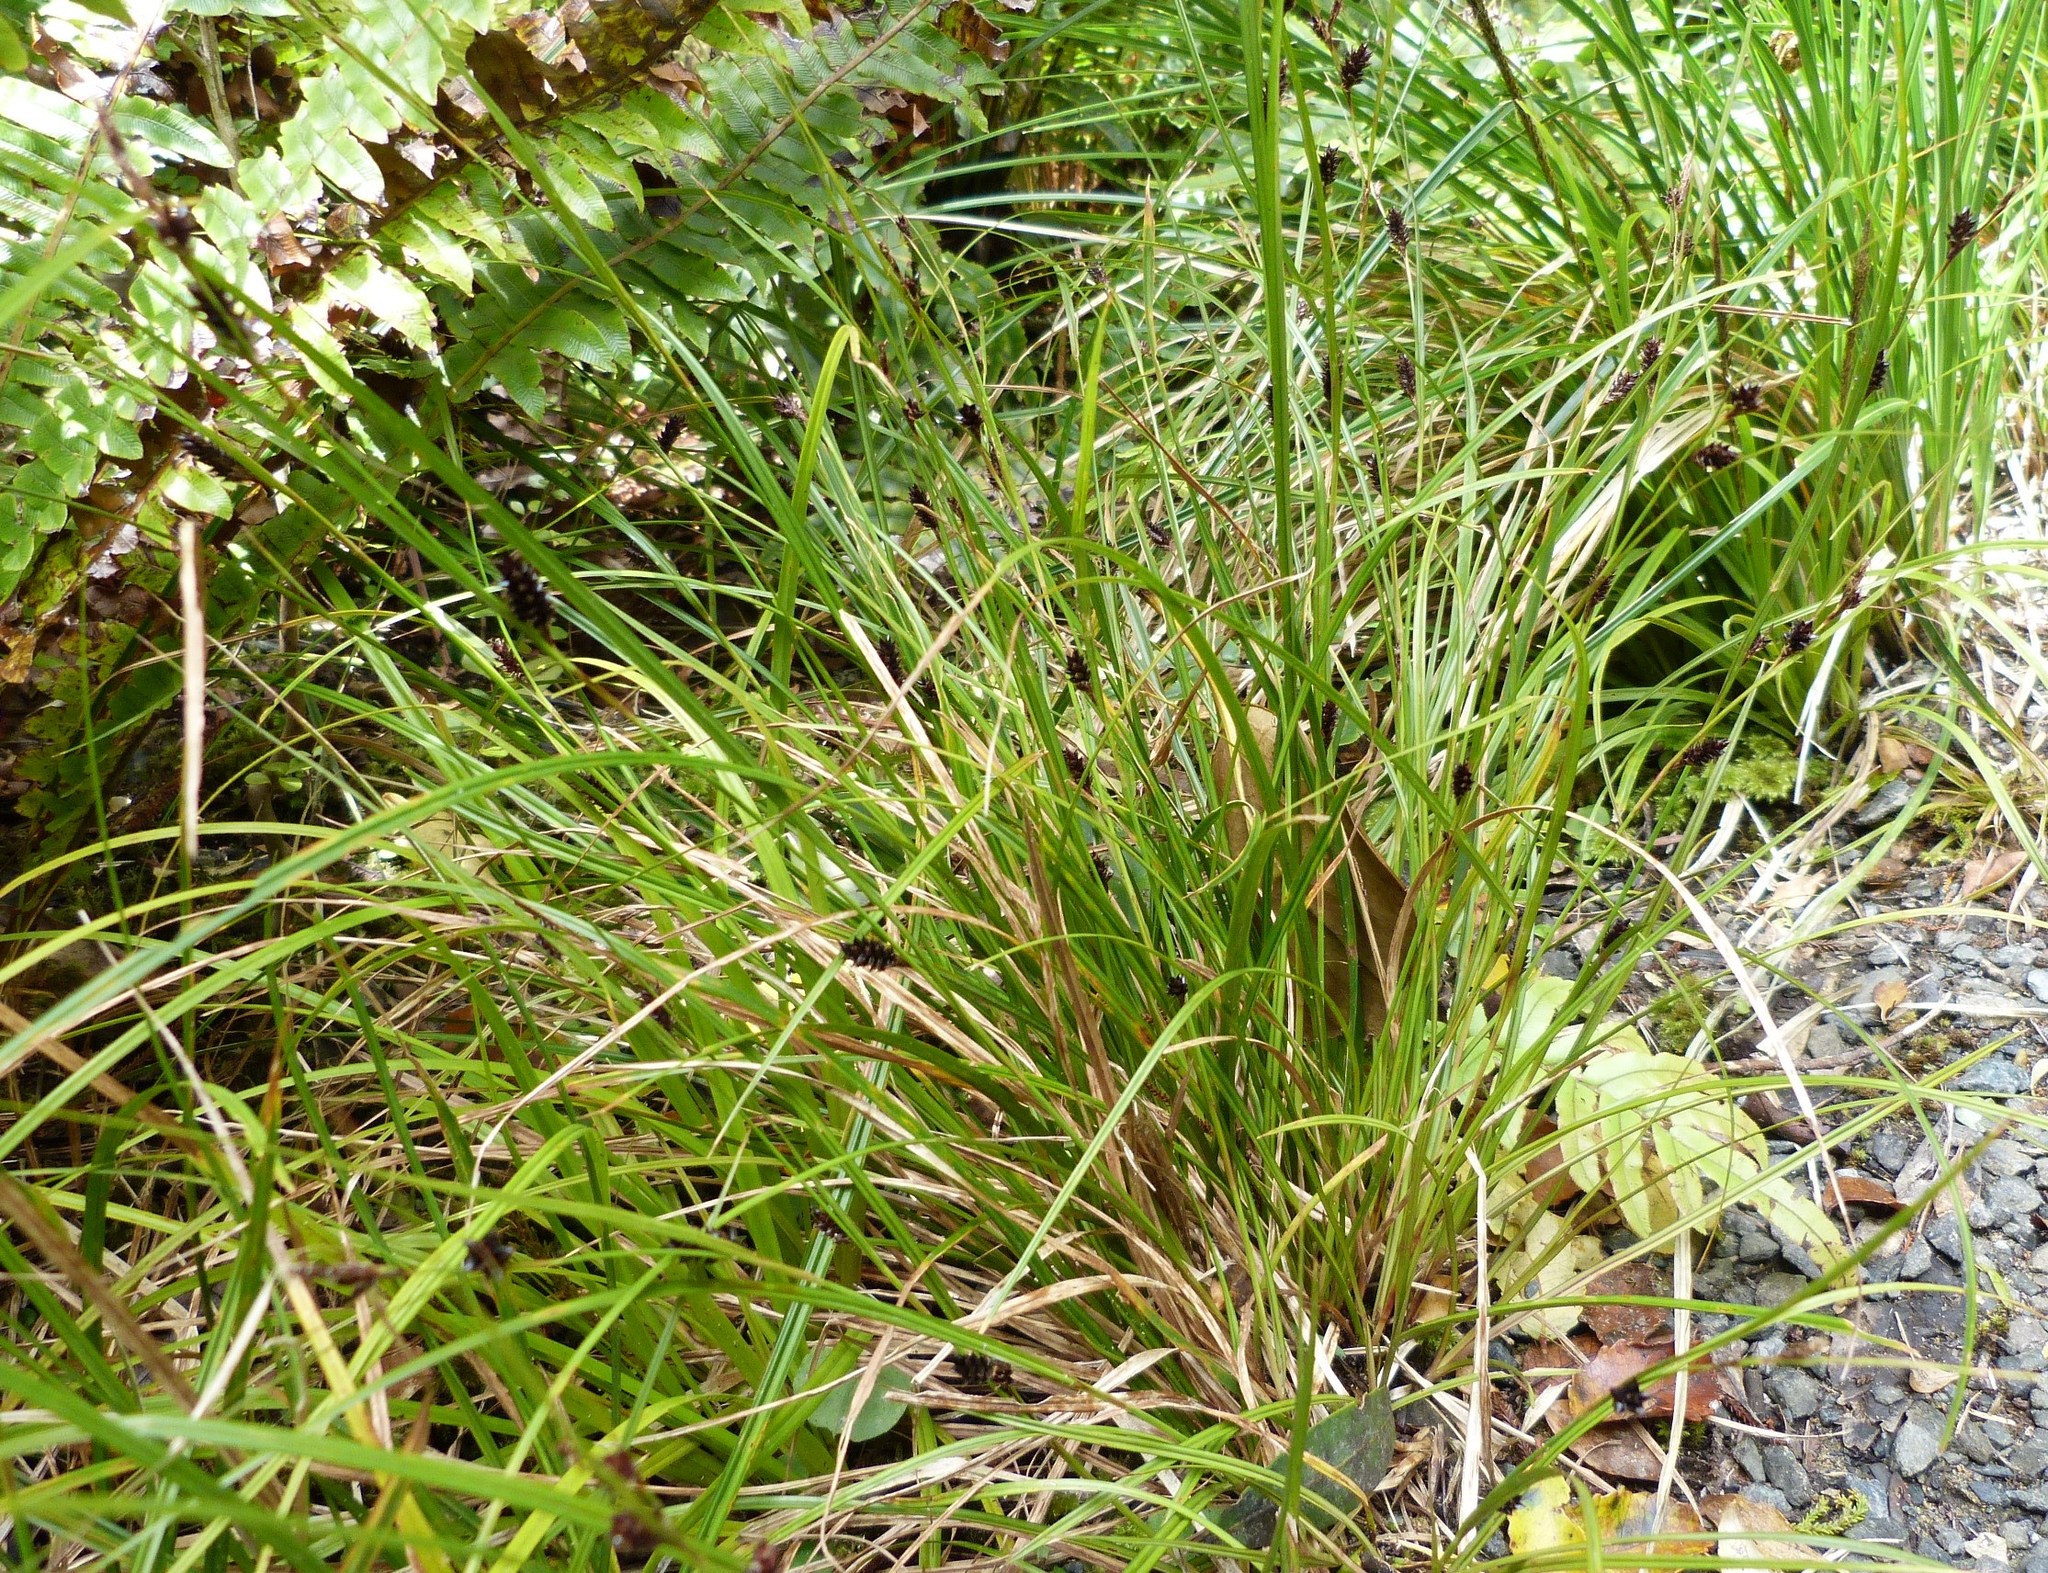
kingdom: Plantae
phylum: Tracheophyta
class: Liliopsida
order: Poales
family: Cyperaceae
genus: Carex
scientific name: Carex dissita
